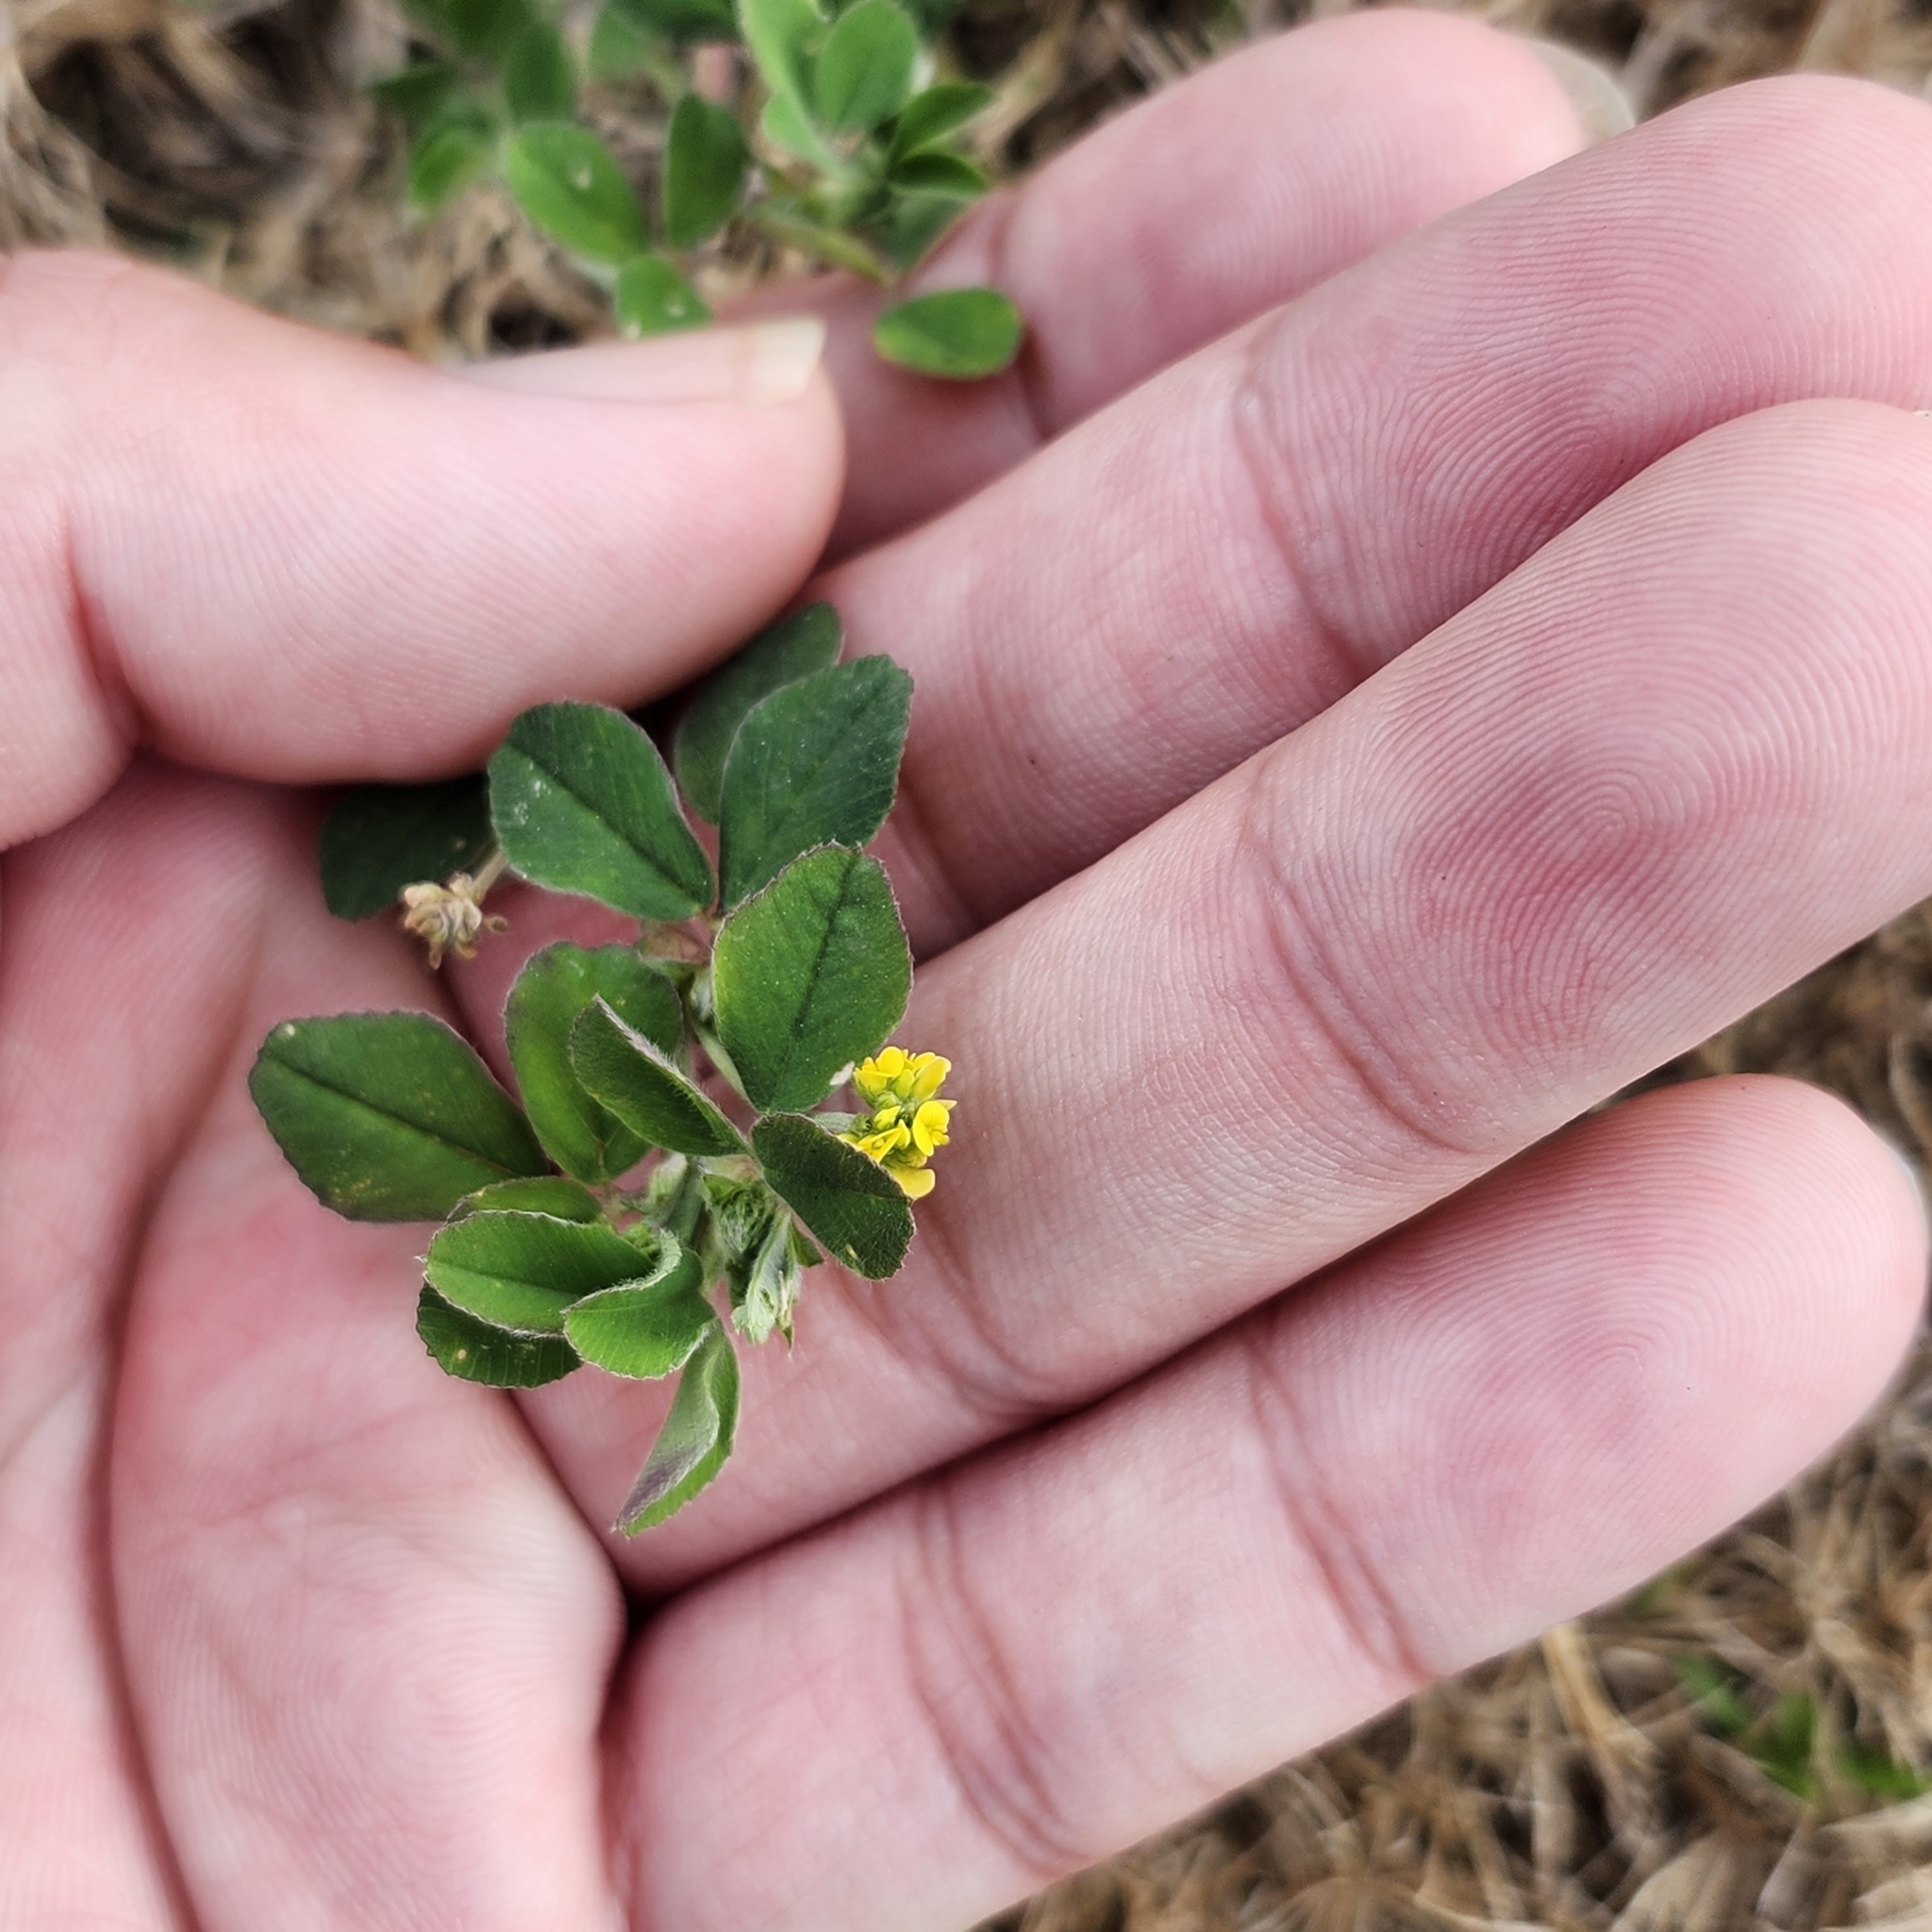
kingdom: Plantae
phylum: Tracheophyta
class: Magnoliopsida
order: Fabales
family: Fabaceae
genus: Medicago
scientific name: Medicago lupulina
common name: Black medick
